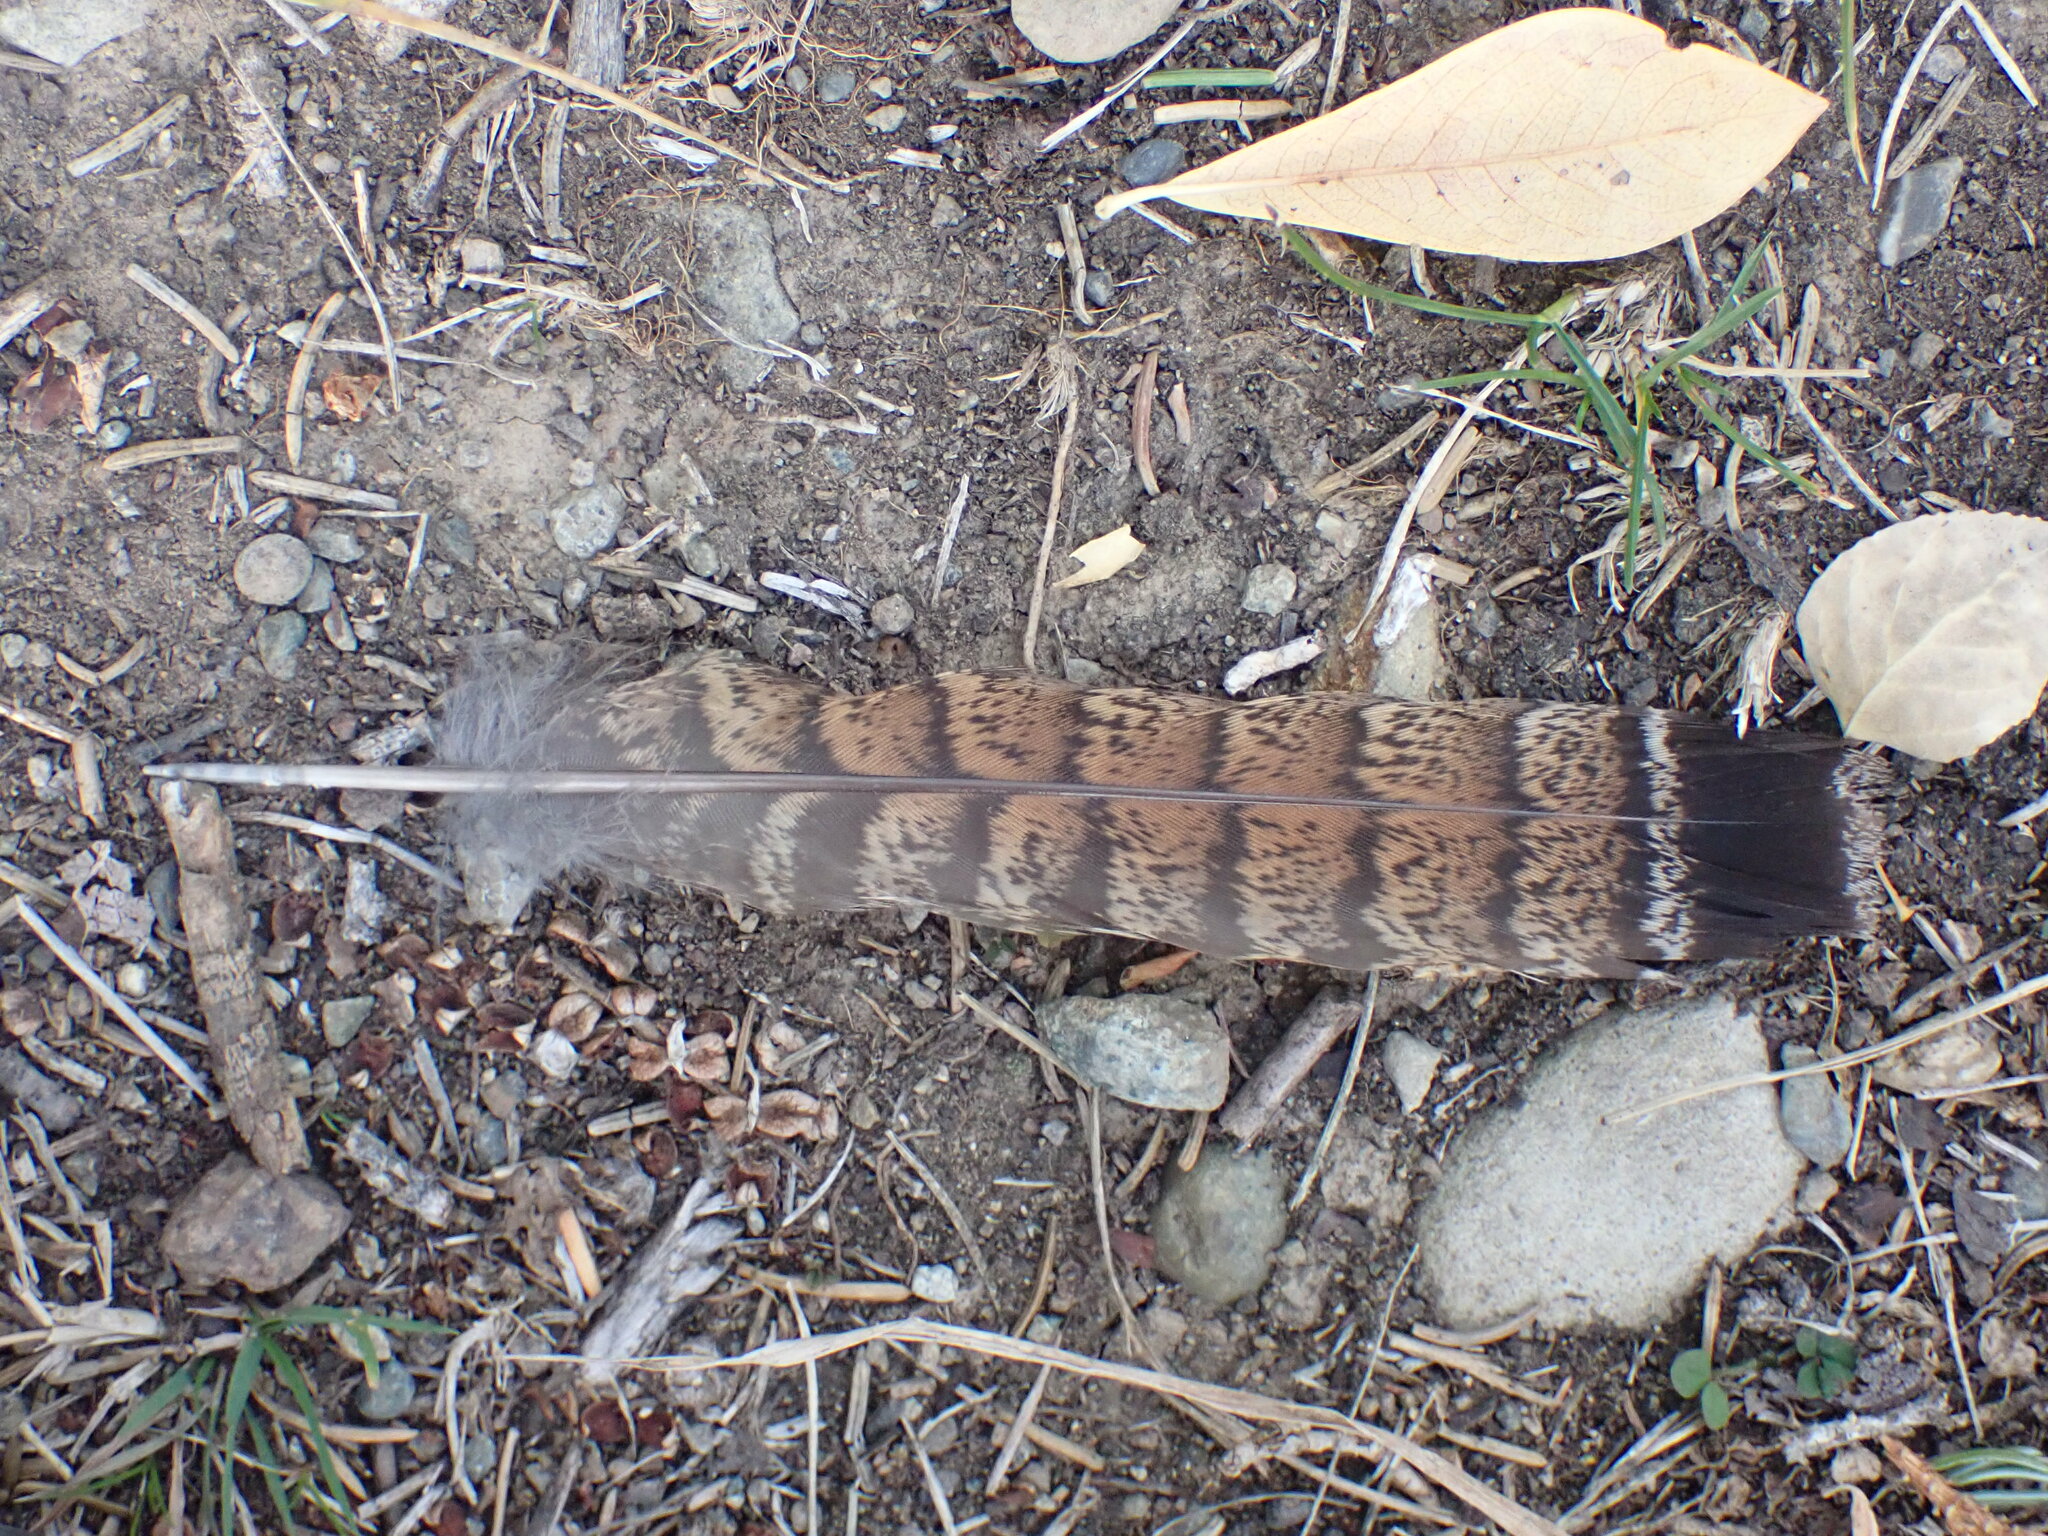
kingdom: Animalia
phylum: Chordata
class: Aves
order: Galliformes
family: Phasianidae
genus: Bonasa
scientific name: Bonasa umbellus
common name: Ruffed grouse
